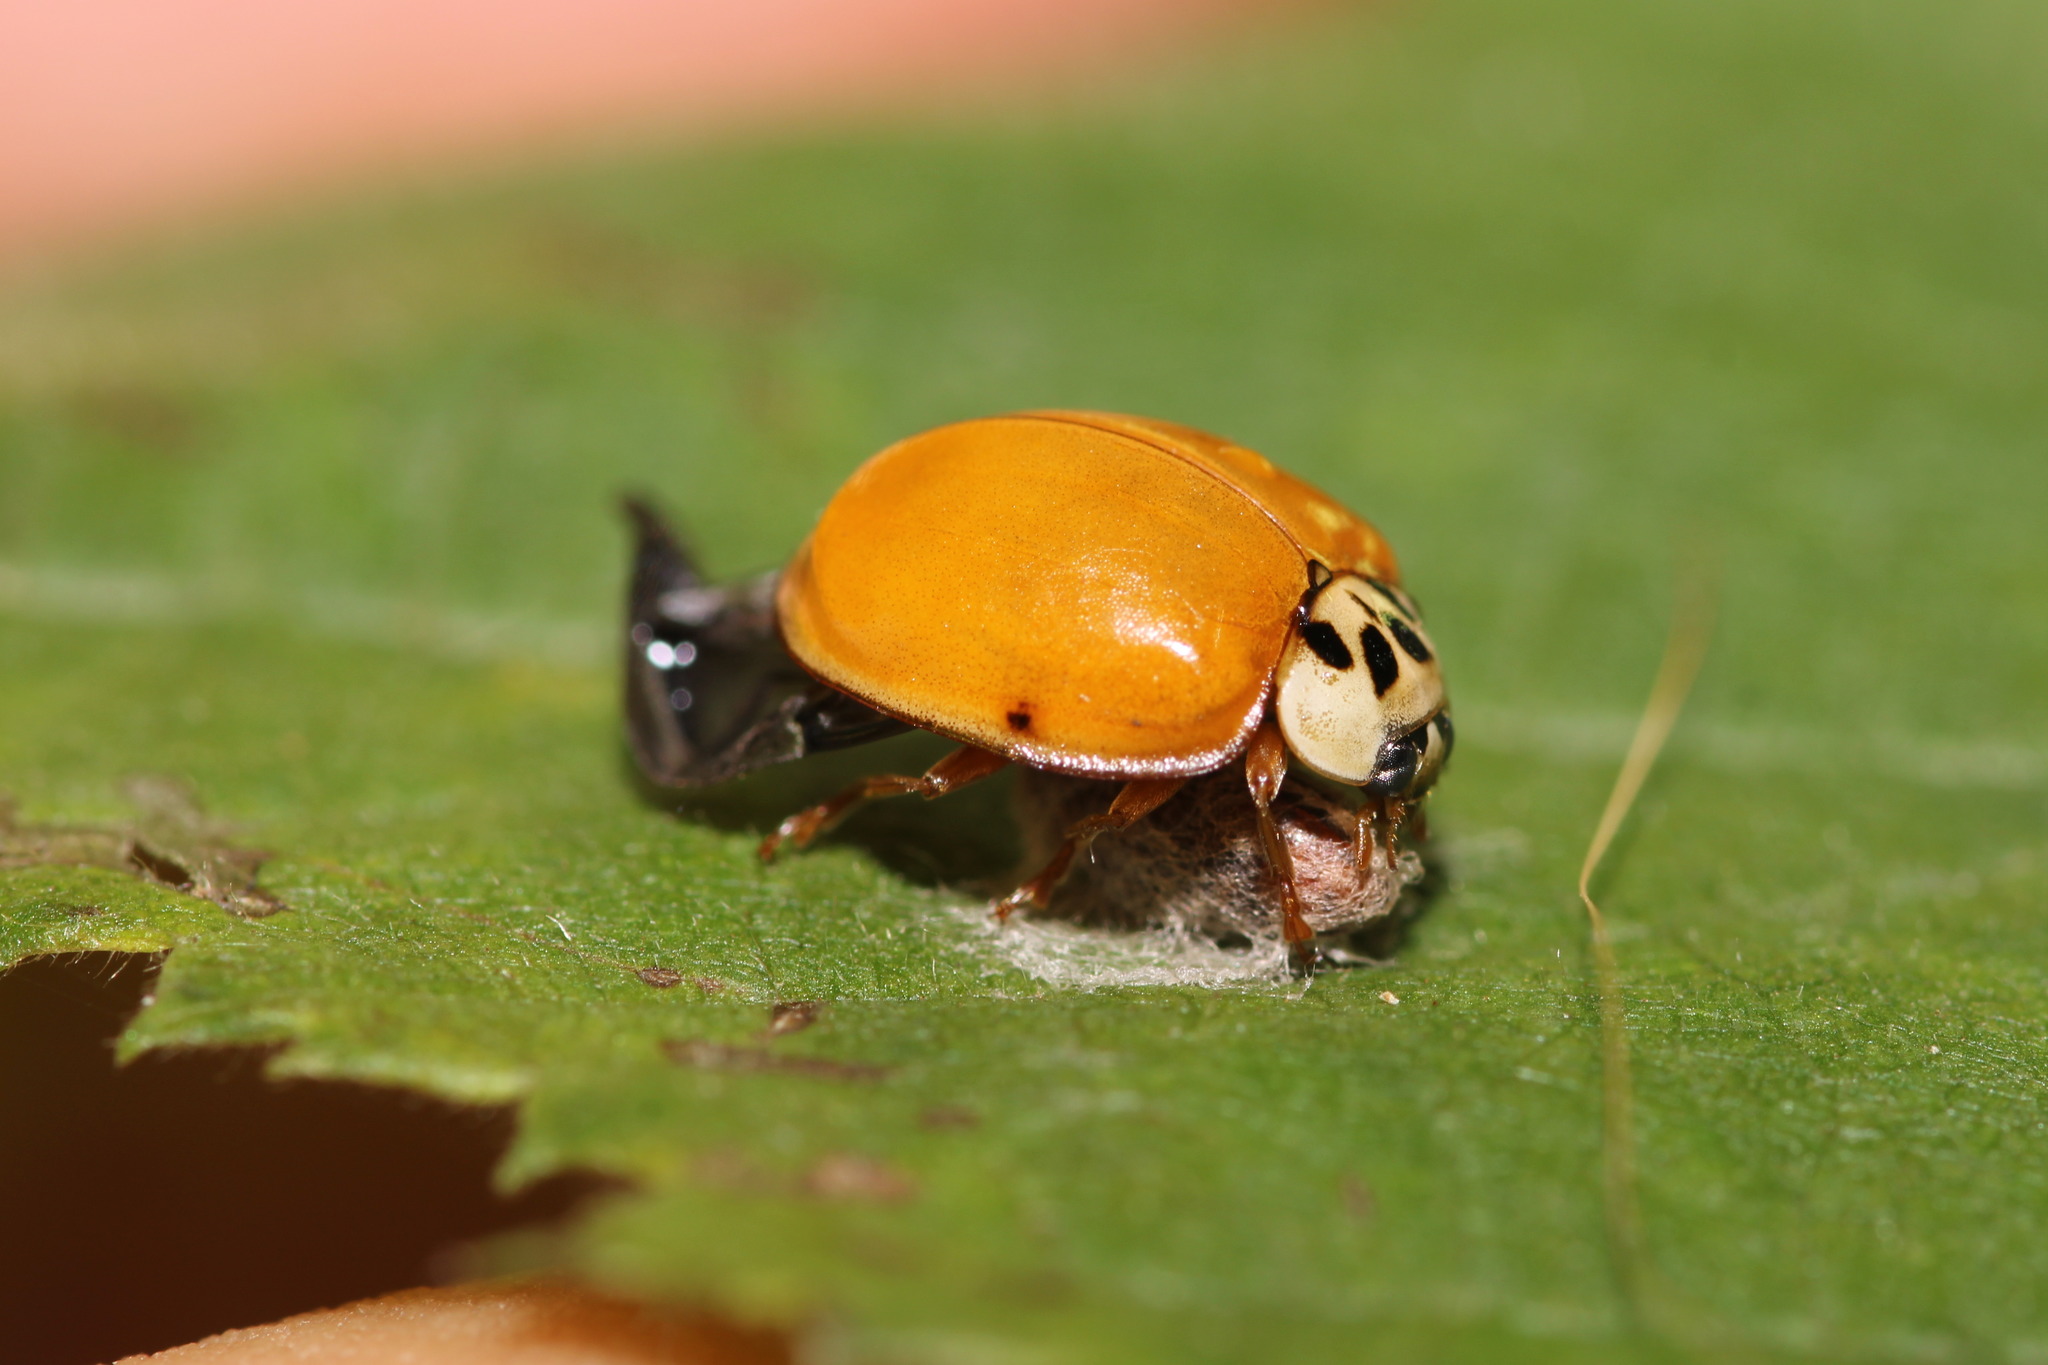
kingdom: Animalia
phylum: Arthropoda
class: Insecta
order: Coleoptera
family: Coccinellidae
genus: Harmonia
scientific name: Harmonia axyridis
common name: Harlequin ladybird
